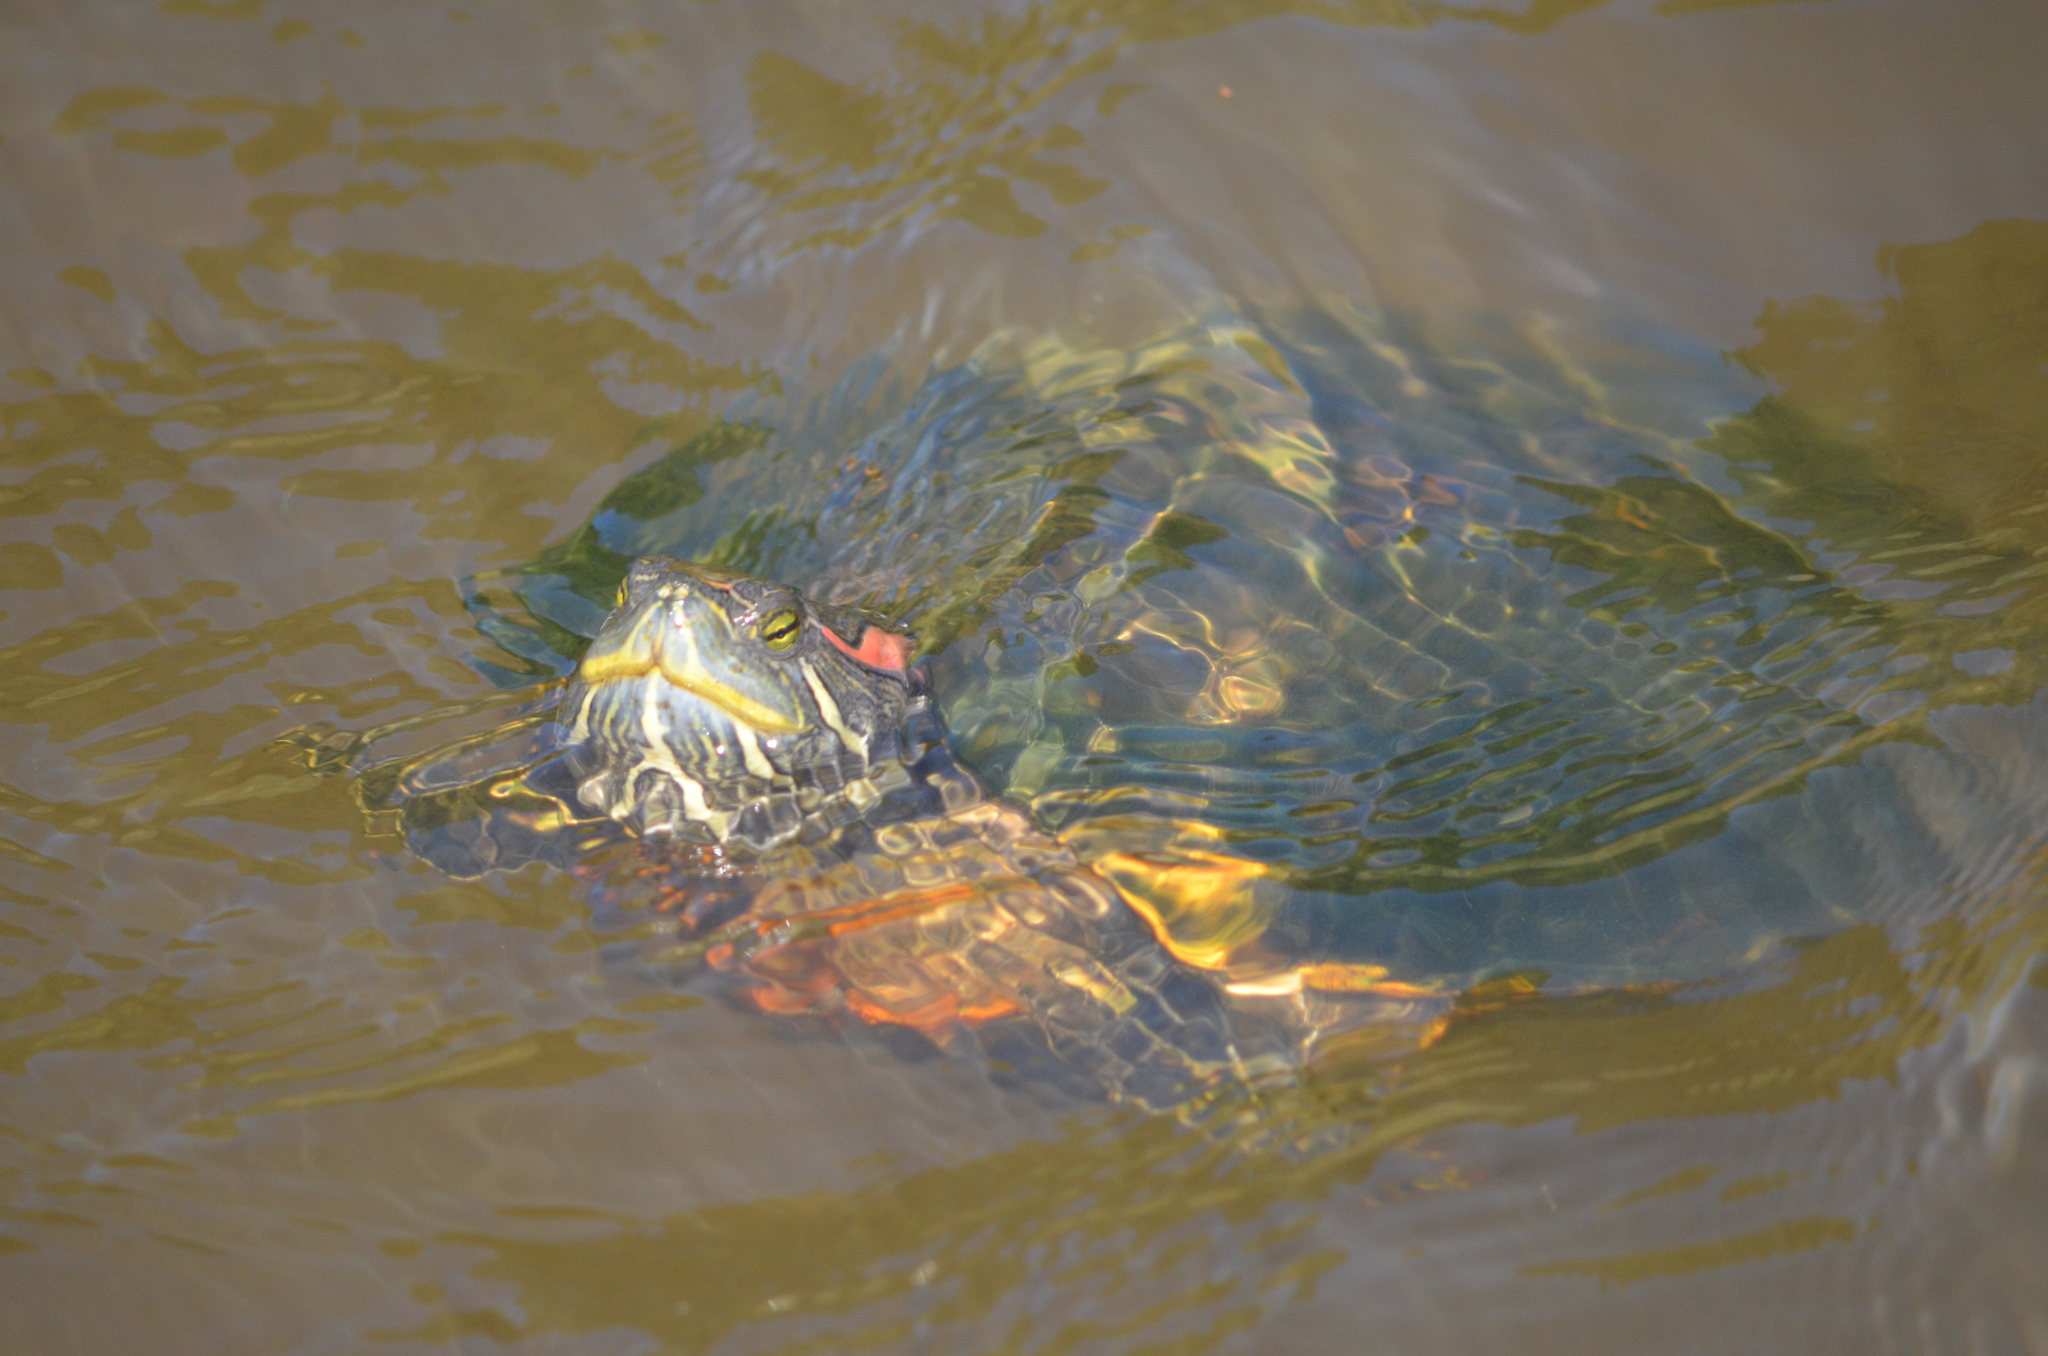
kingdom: Animalia
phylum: Chordata
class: Testudines
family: Emydidae
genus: Trachemys
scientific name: Trachemys scripta
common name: Slider
